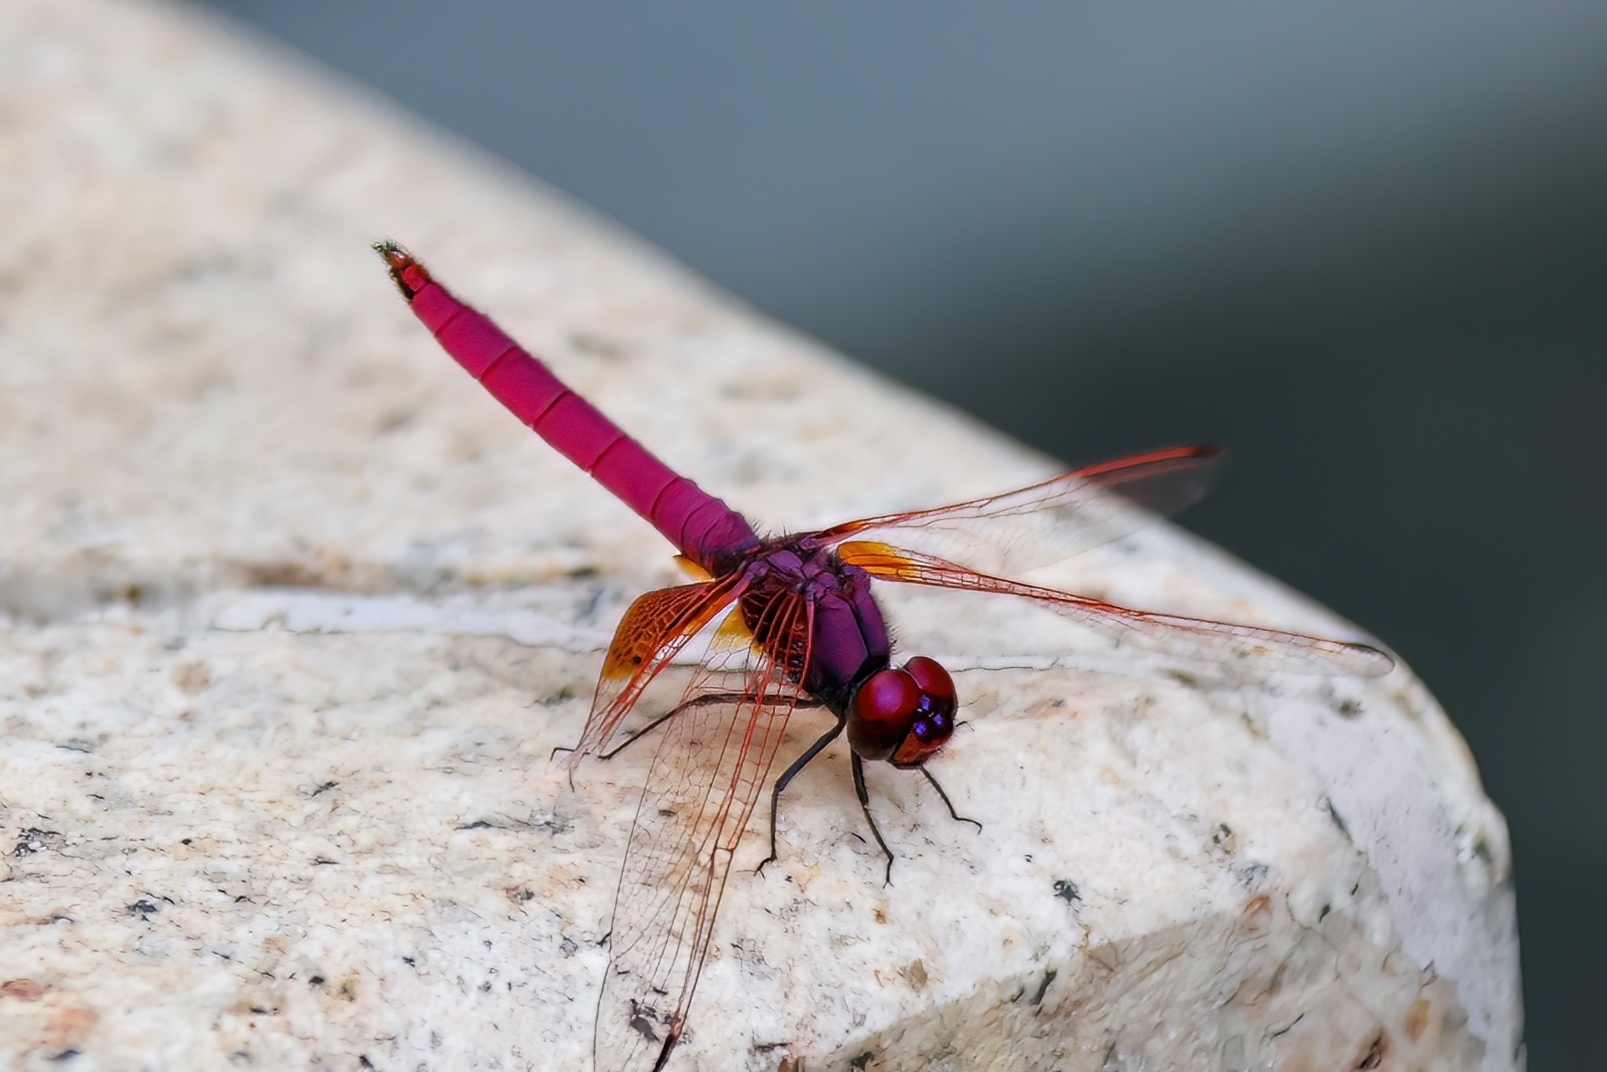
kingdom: Animalia
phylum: Arthropoda
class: Insecta
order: Odonata
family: Libellulidae
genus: Trithemis
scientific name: Trithemis aurora
